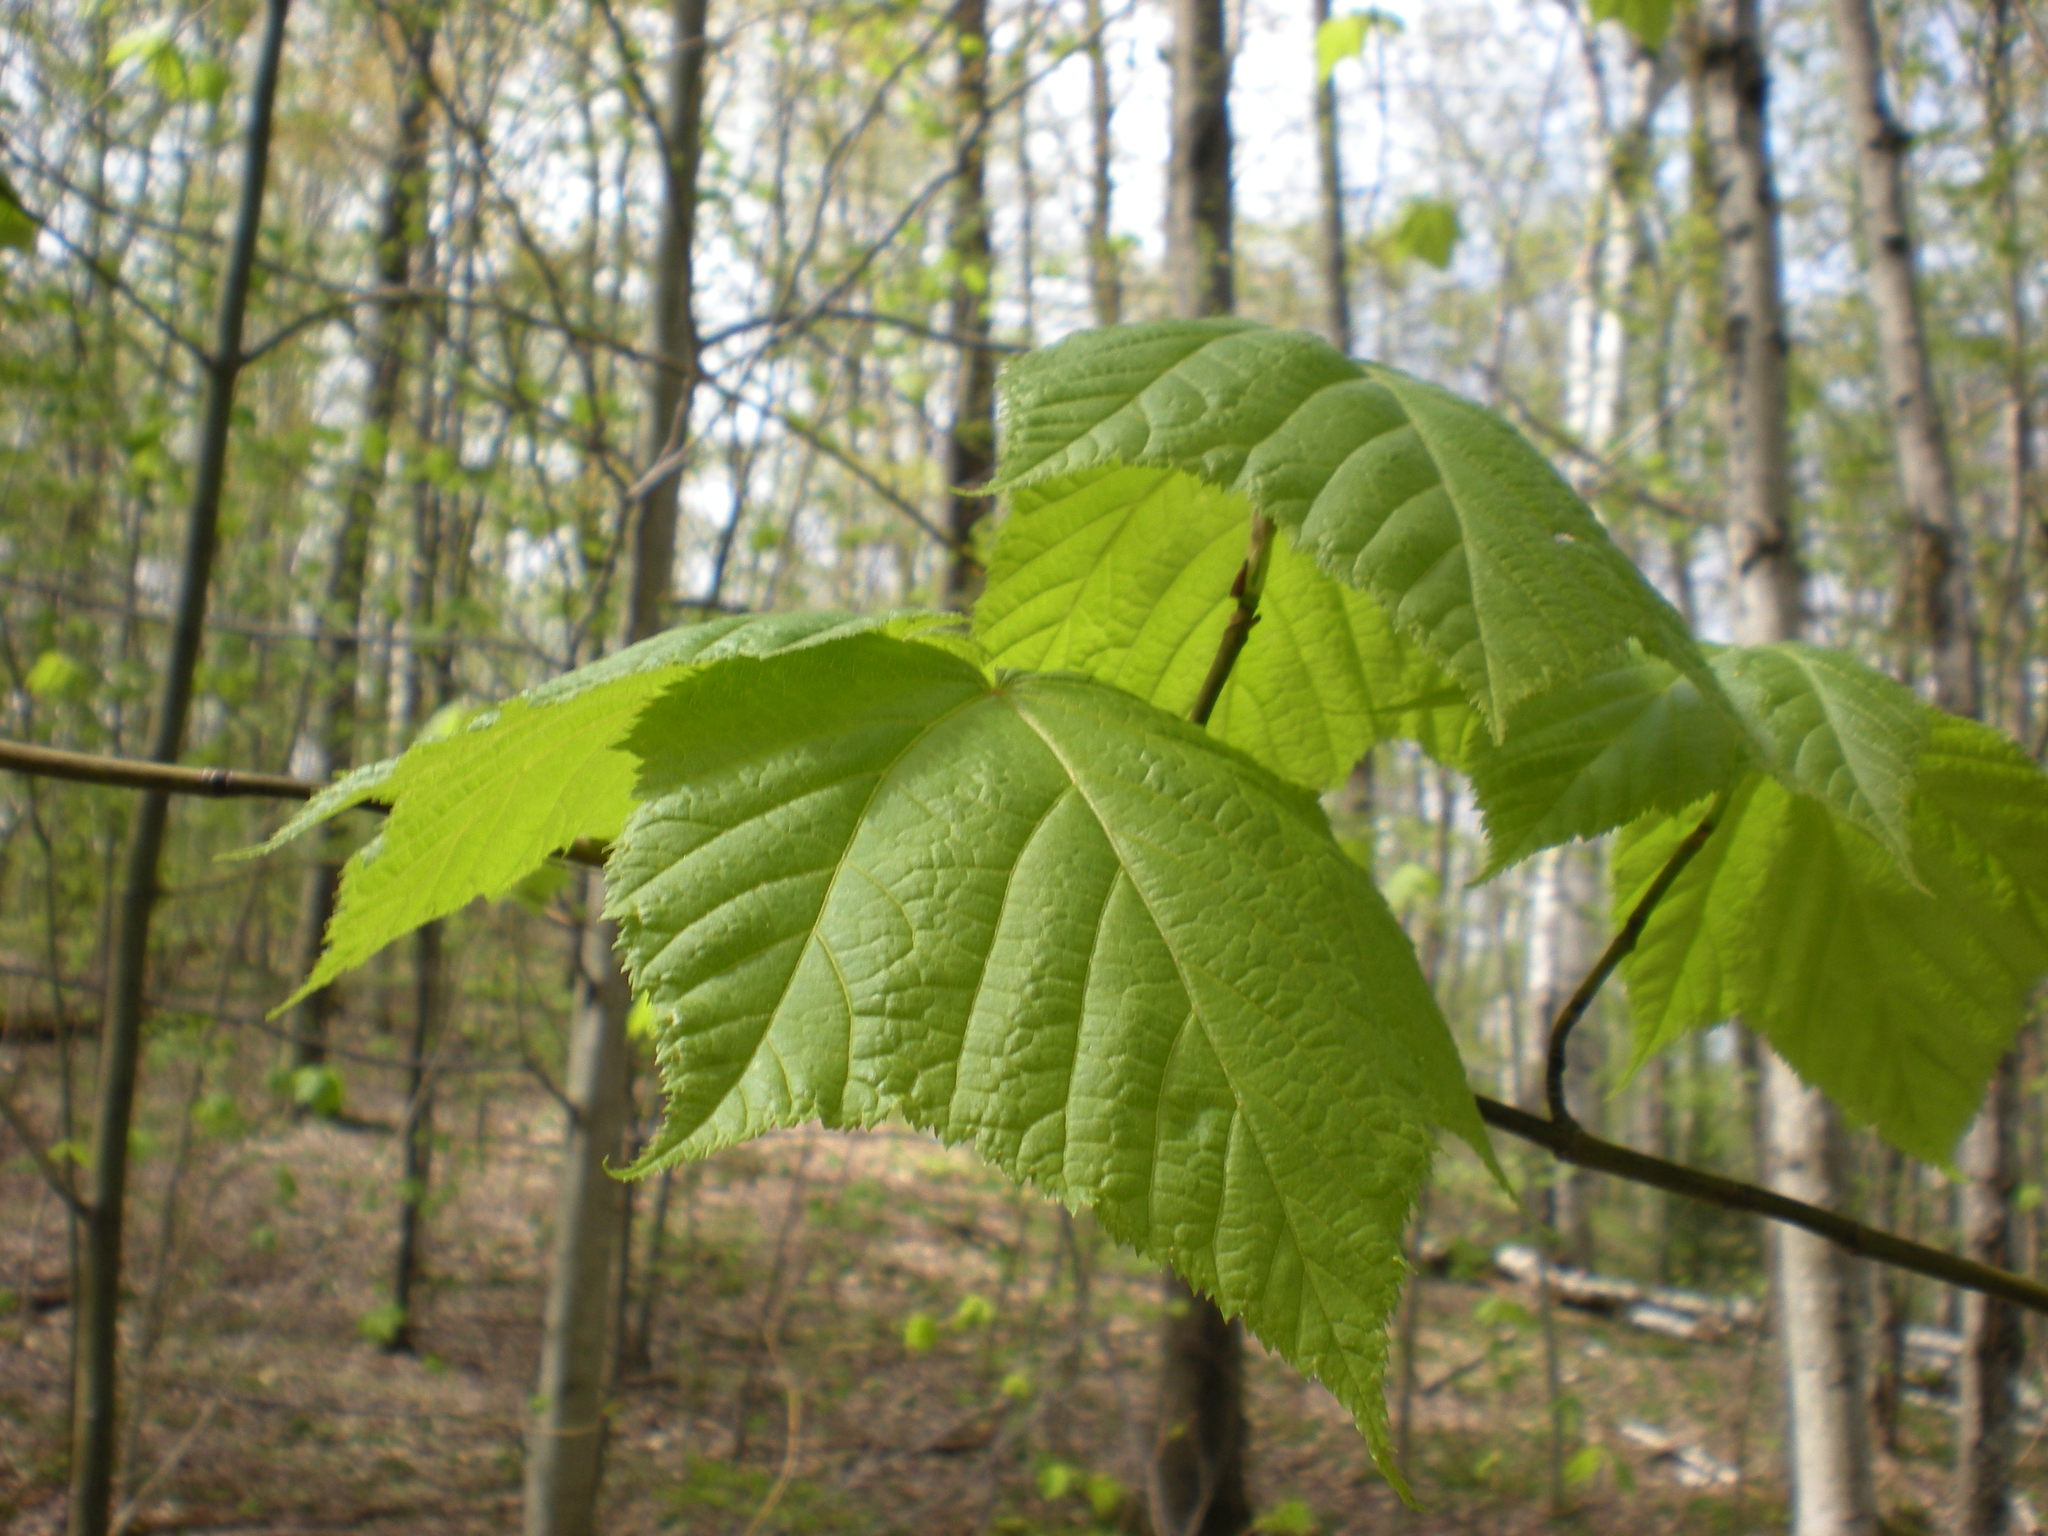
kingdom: Plantae
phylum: Tracheophyta
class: Magnoliopsida
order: Sapindales
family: Sapindaceae
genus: Acer
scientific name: Acer pensylvanicum
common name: Moosewood
